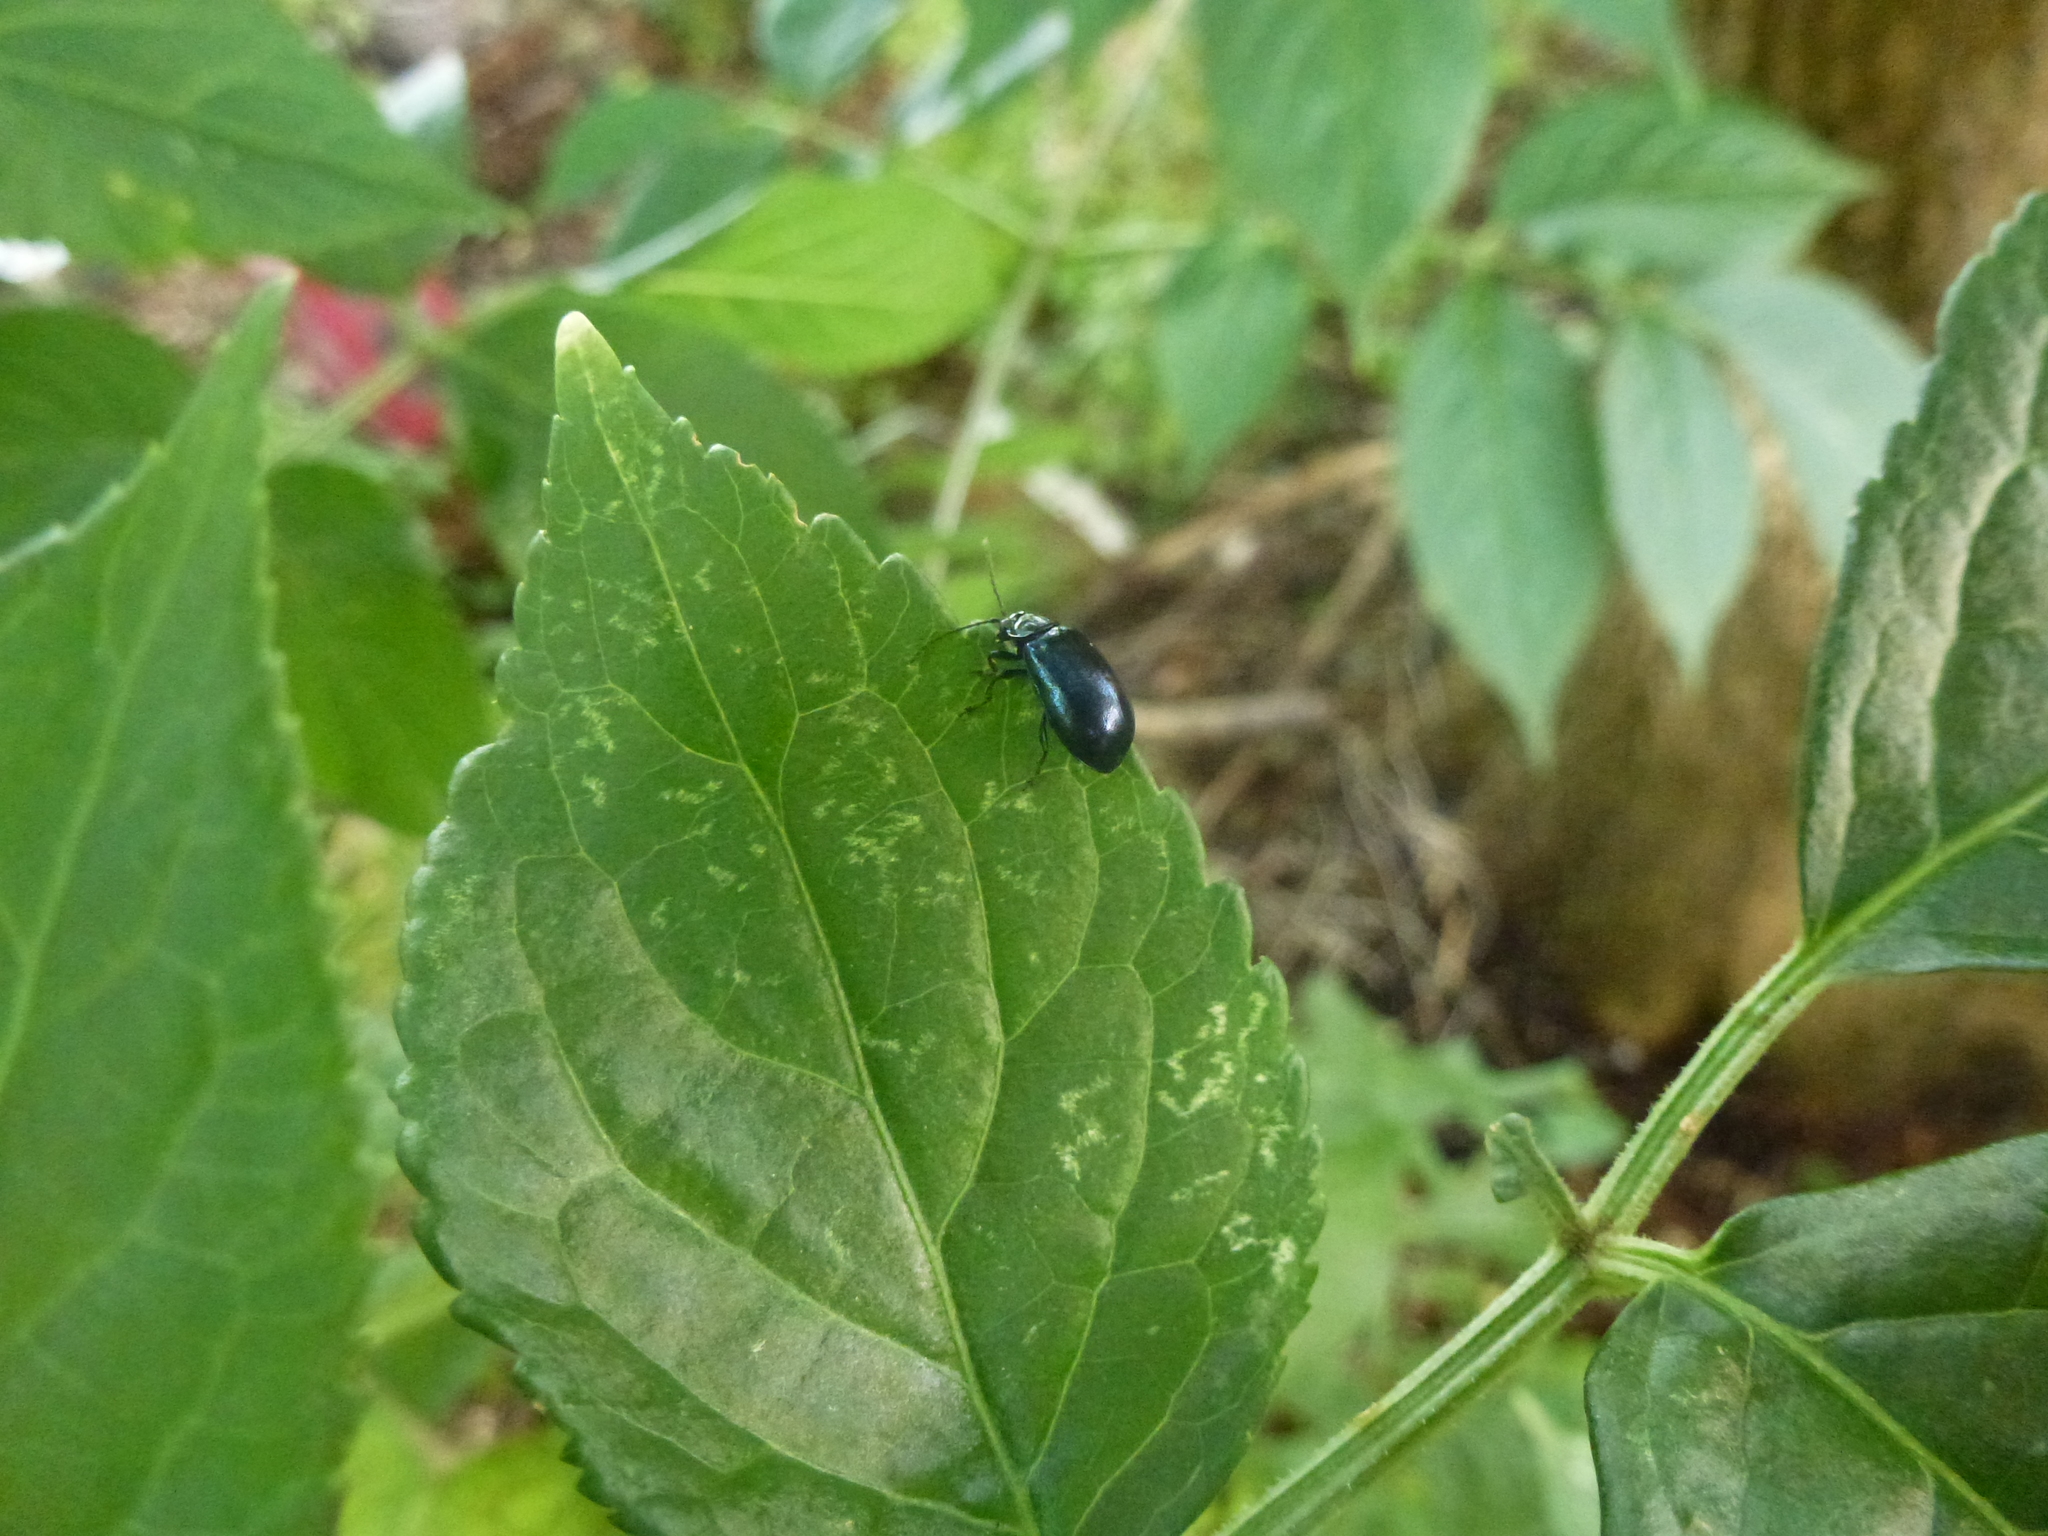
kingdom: Animalia
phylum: Arthropoda
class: Insecta
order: Coleoptera
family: Chrysomelidae
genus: Agelastica
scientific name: Agelastica alni
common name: Alder leaf beetle
